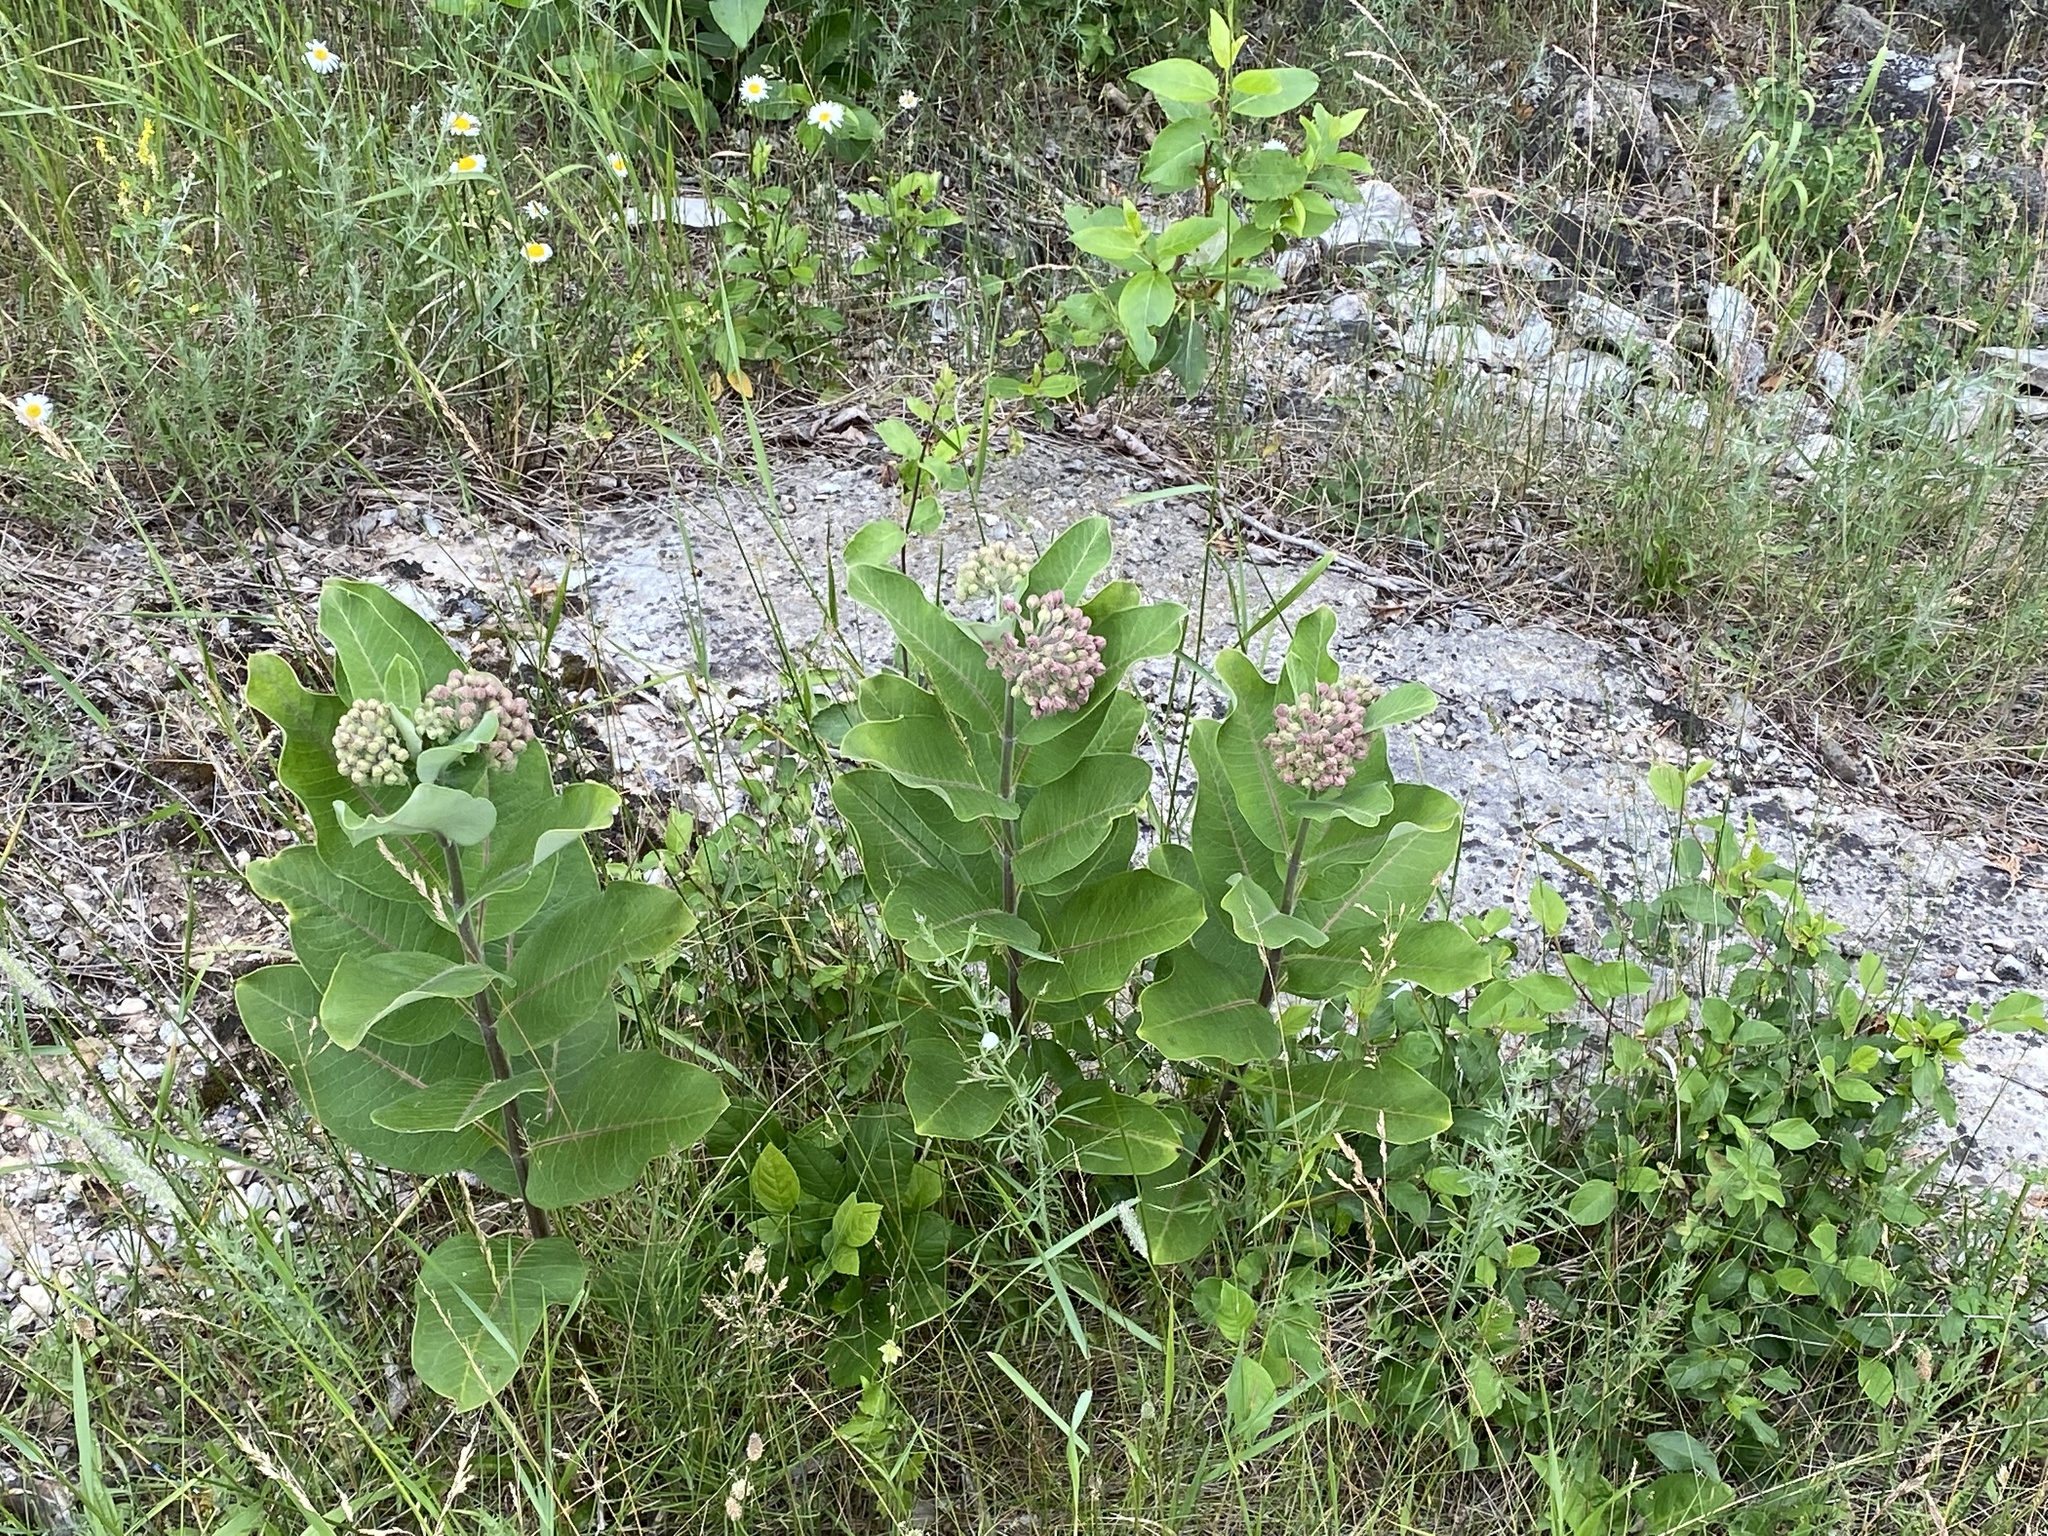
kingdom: Plantae
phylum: Tracheophyta
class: Magnoliopsida
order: Gentianales
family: Apocynaceae
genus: Asclepias
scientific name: Asclepias syriaca
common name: Common milkweed
